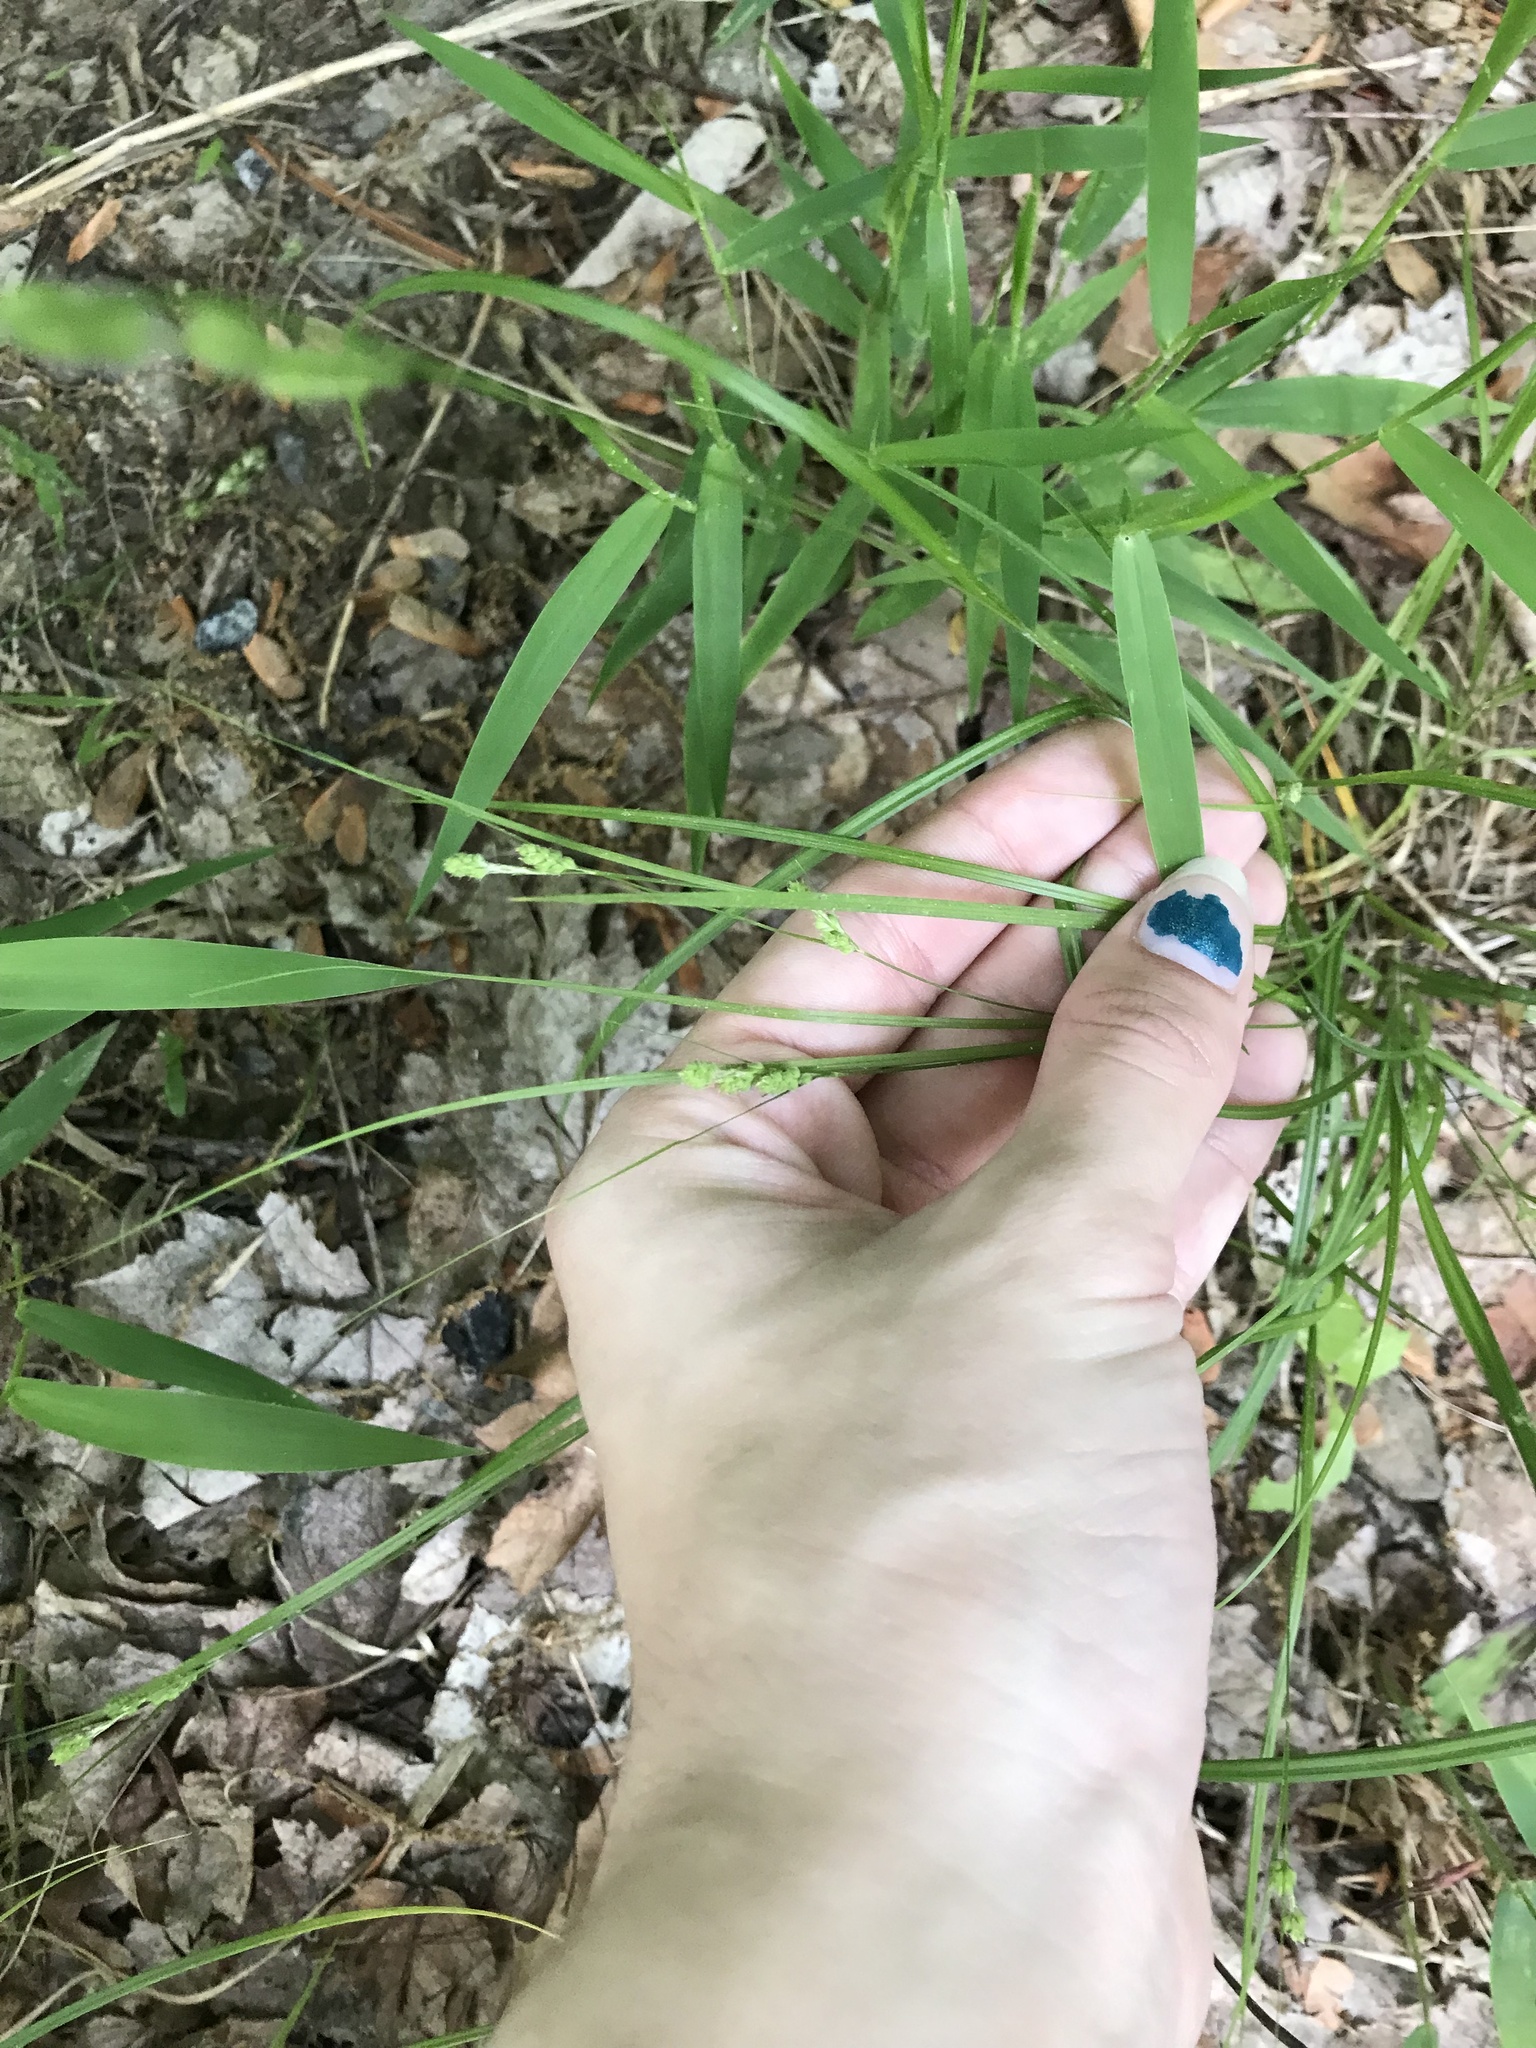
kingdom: Plantae
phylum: Tracheophyta
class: Liliopsida
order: Poales
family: Cyperaceae
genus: Carex
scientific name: Carex swanii
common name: Downy green sedge
